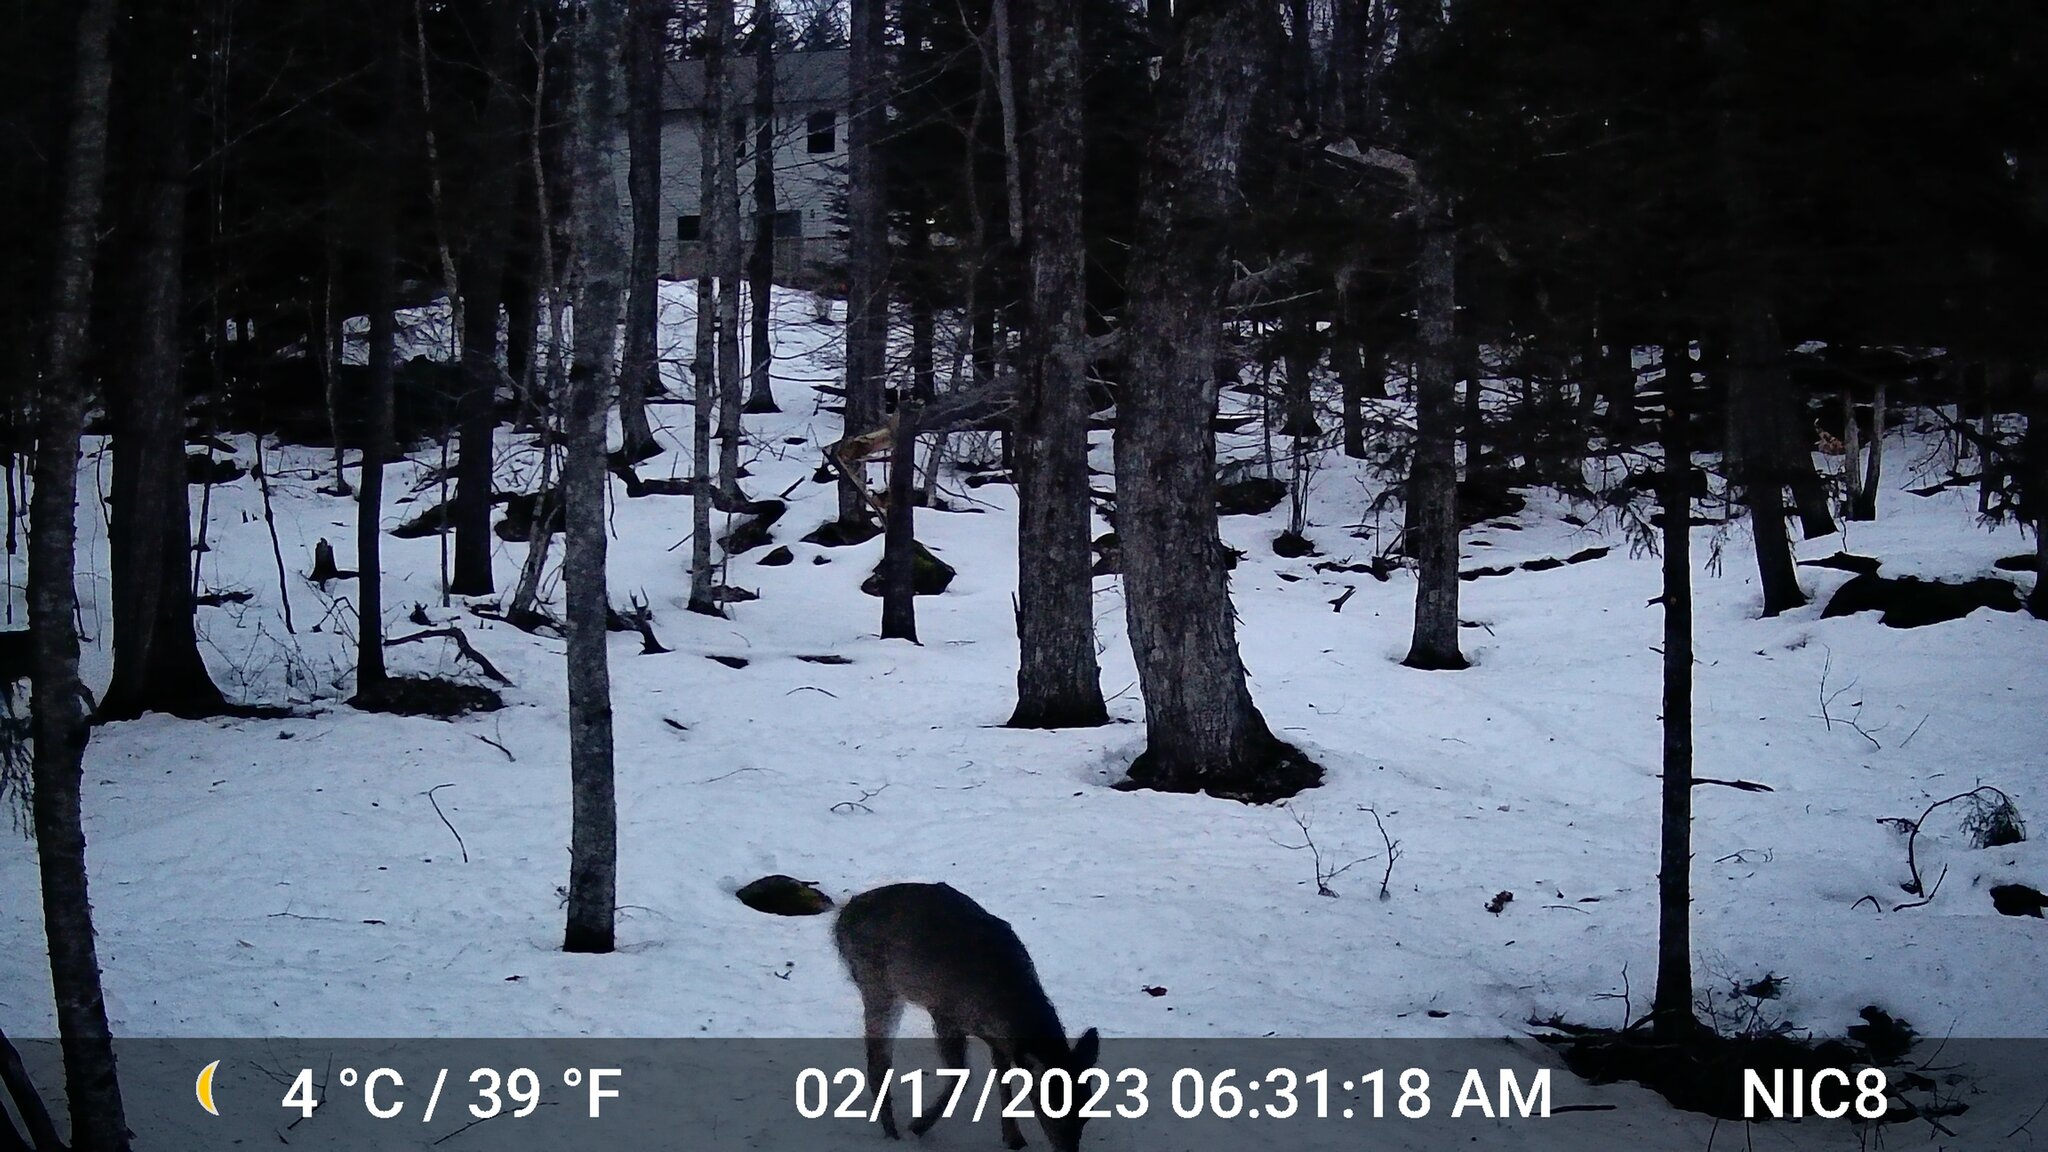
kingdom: Animalia
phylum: Chordata
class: Mammalia
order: Artiodactyla
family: Cervidae
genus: Odocoileus
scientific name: Odocoileus virginianus
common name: White-tailed deer
